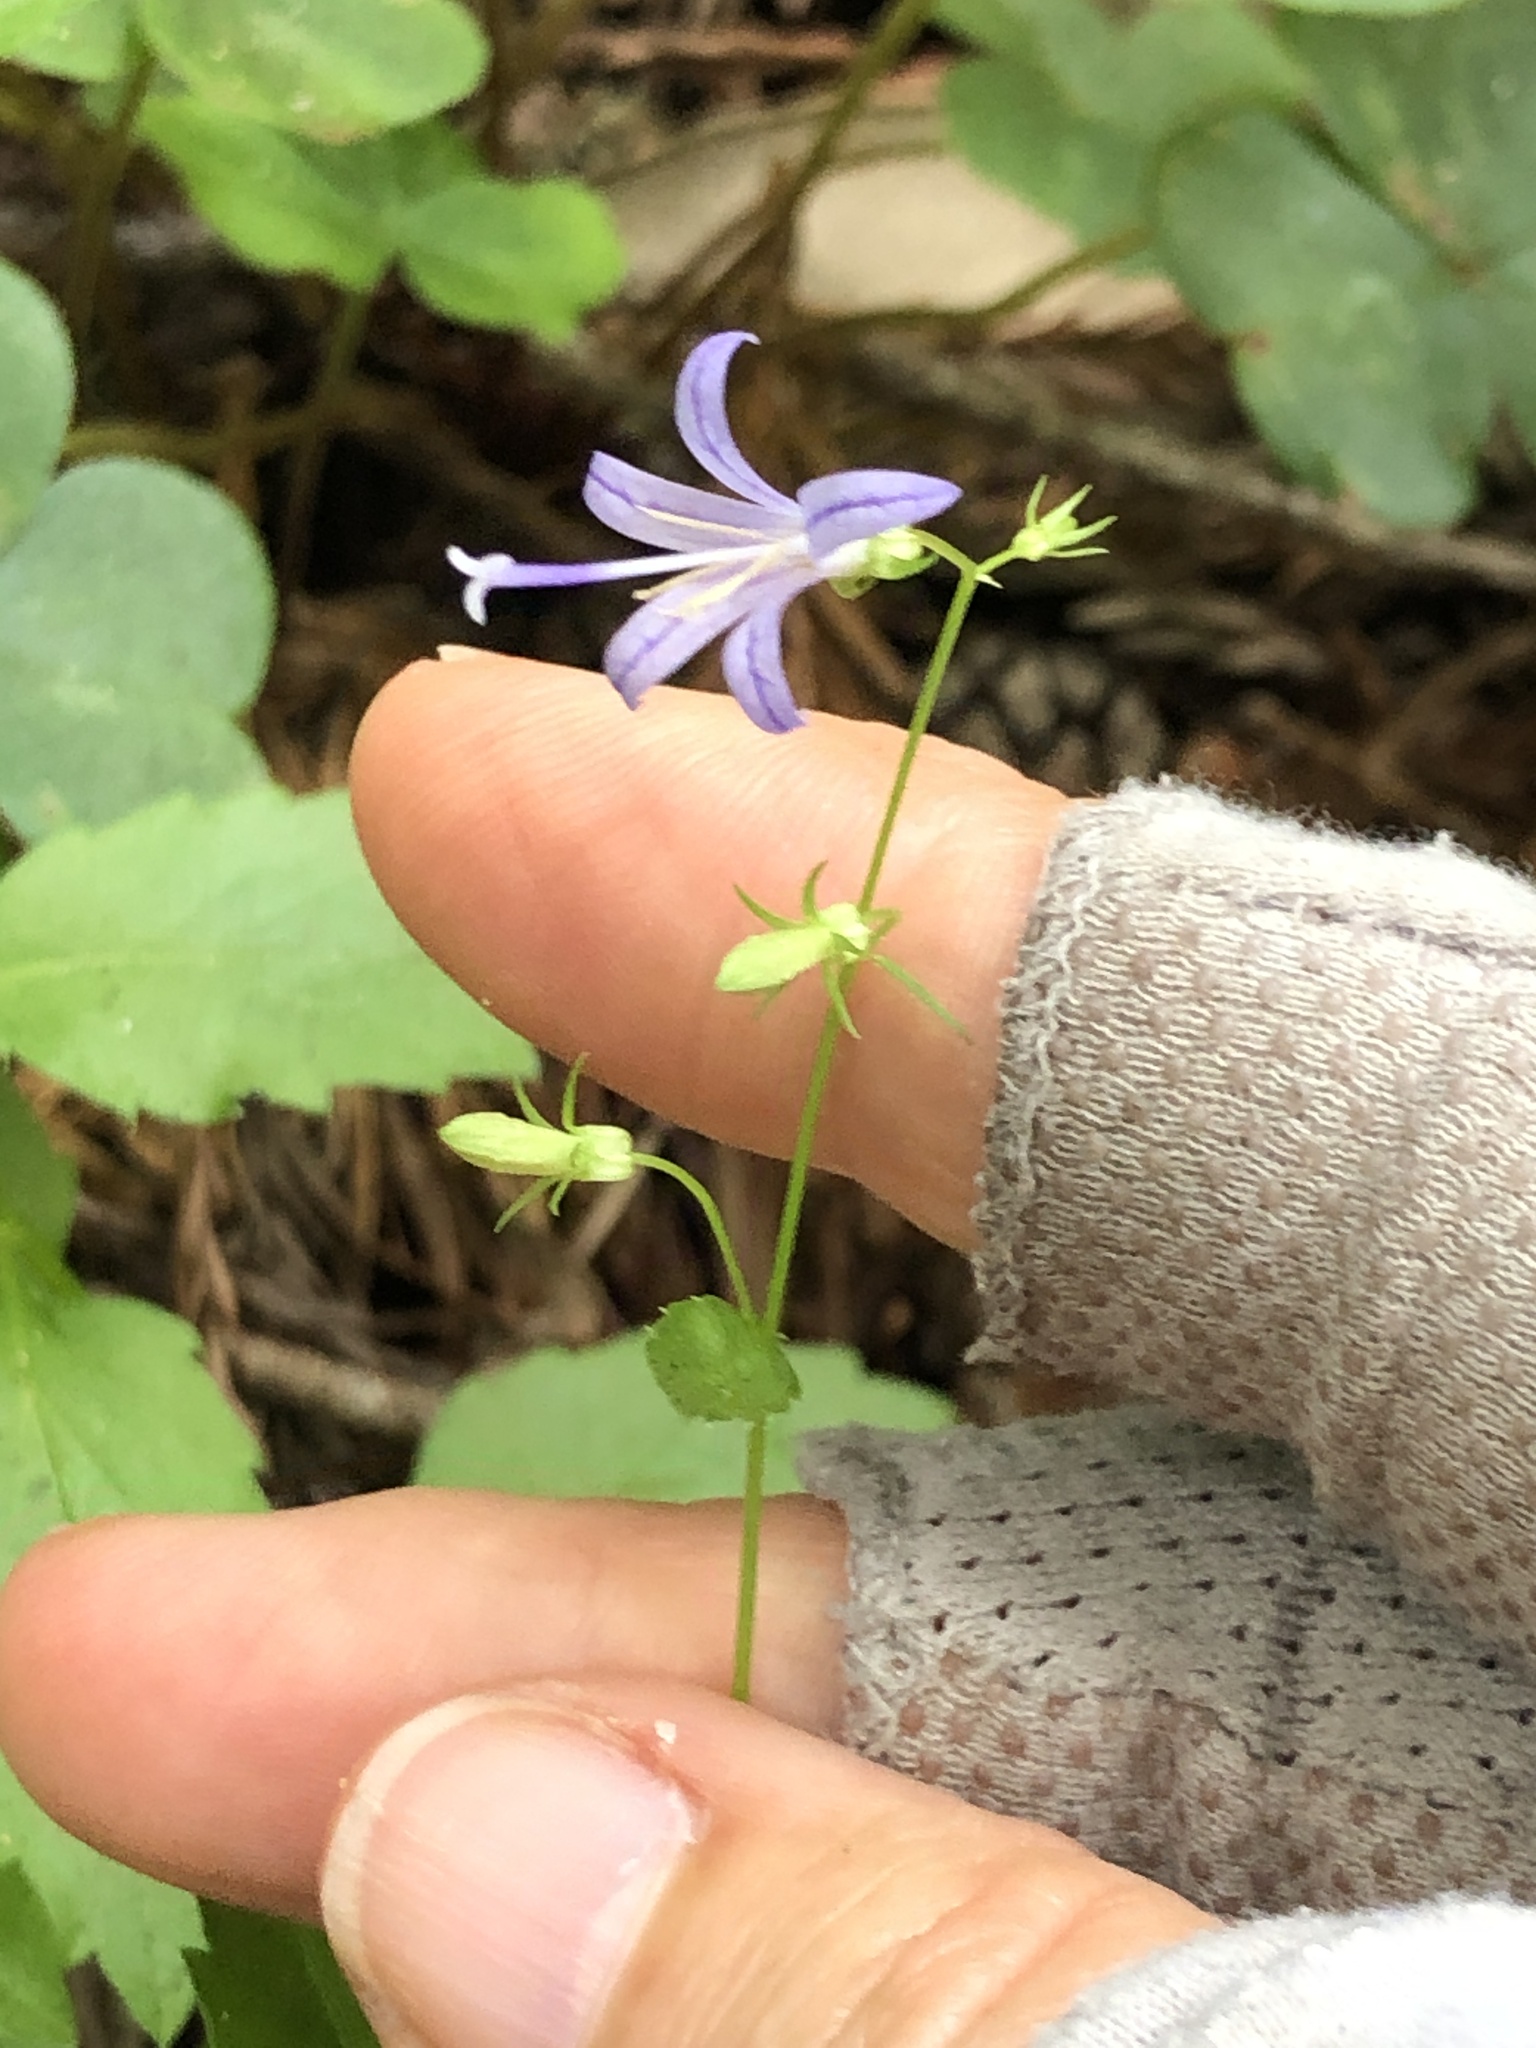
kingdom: Plantae
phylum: Tracheophyta
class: Magnoliopsida
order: Asterales
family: Campanulaceae
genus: Smithiastrum
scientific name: Smithiastrum prenanthoides
